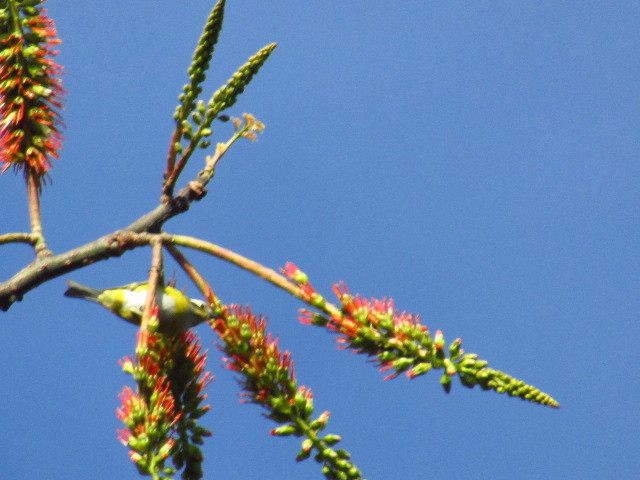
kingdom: Animalia
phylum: Chordata
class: Aves
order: Passeriformes
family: Passerellidae
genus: Chlorospingus
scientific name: Chlorospingus flavopectus
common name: Common chlorospingus
